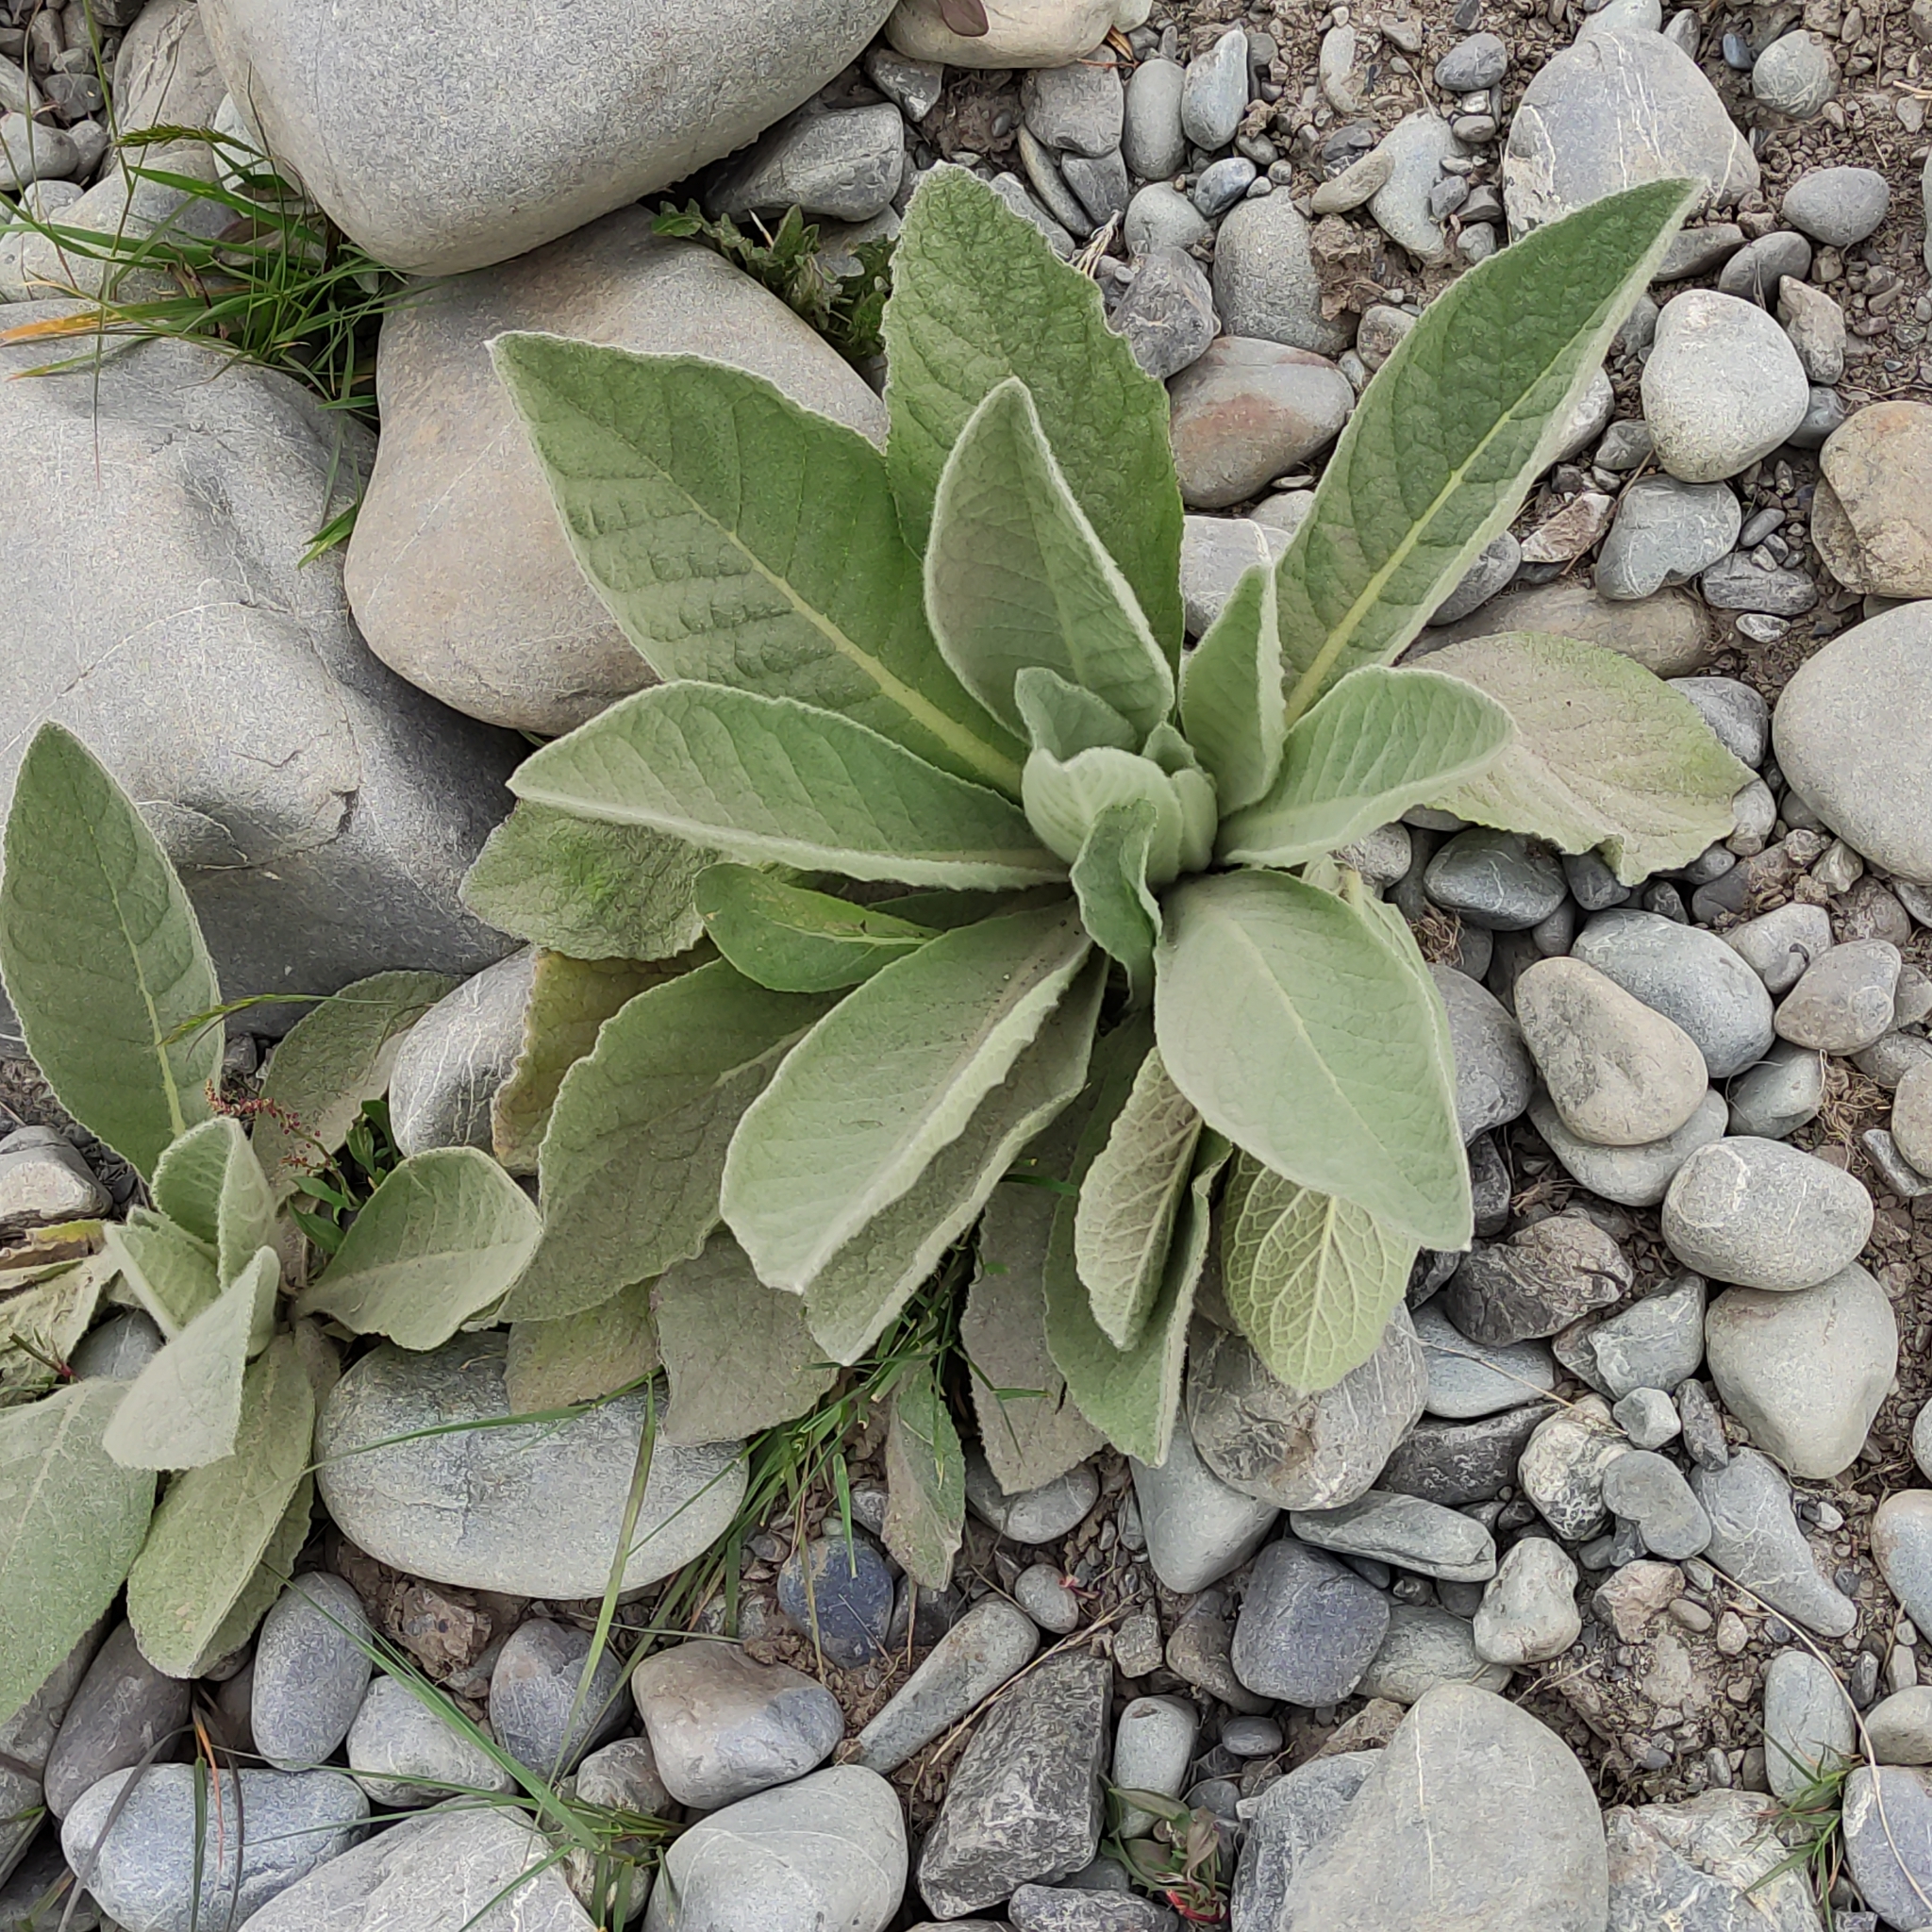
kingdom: Plantae
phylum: Tracheophyta
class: Magnoliopsida
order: Lamiales
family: Scrophulariaceae
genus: Verbascum
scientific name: Verbascum thapsus
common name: Common mullein
